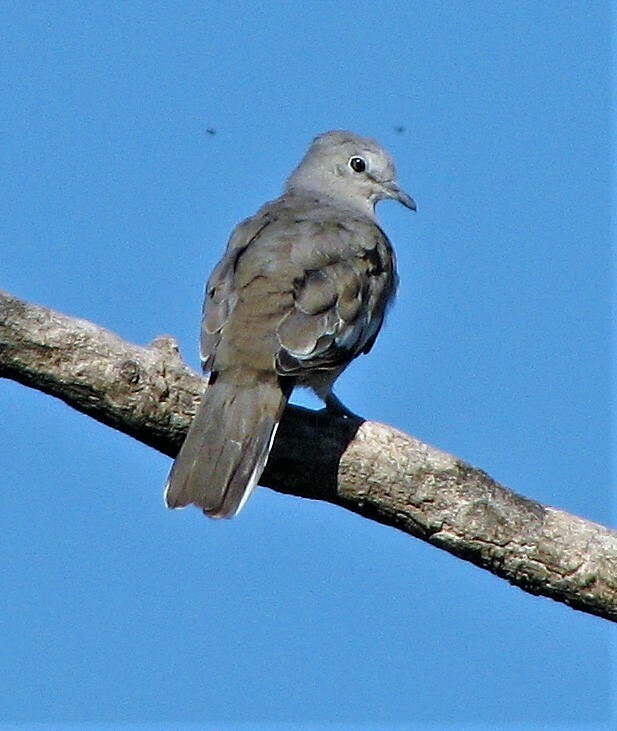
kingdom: Animalia
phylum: Chordata
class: Aves
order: Columbiformes
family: Columbidae
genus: Columbina
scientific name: Columbina picui
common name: Picui ground dove
